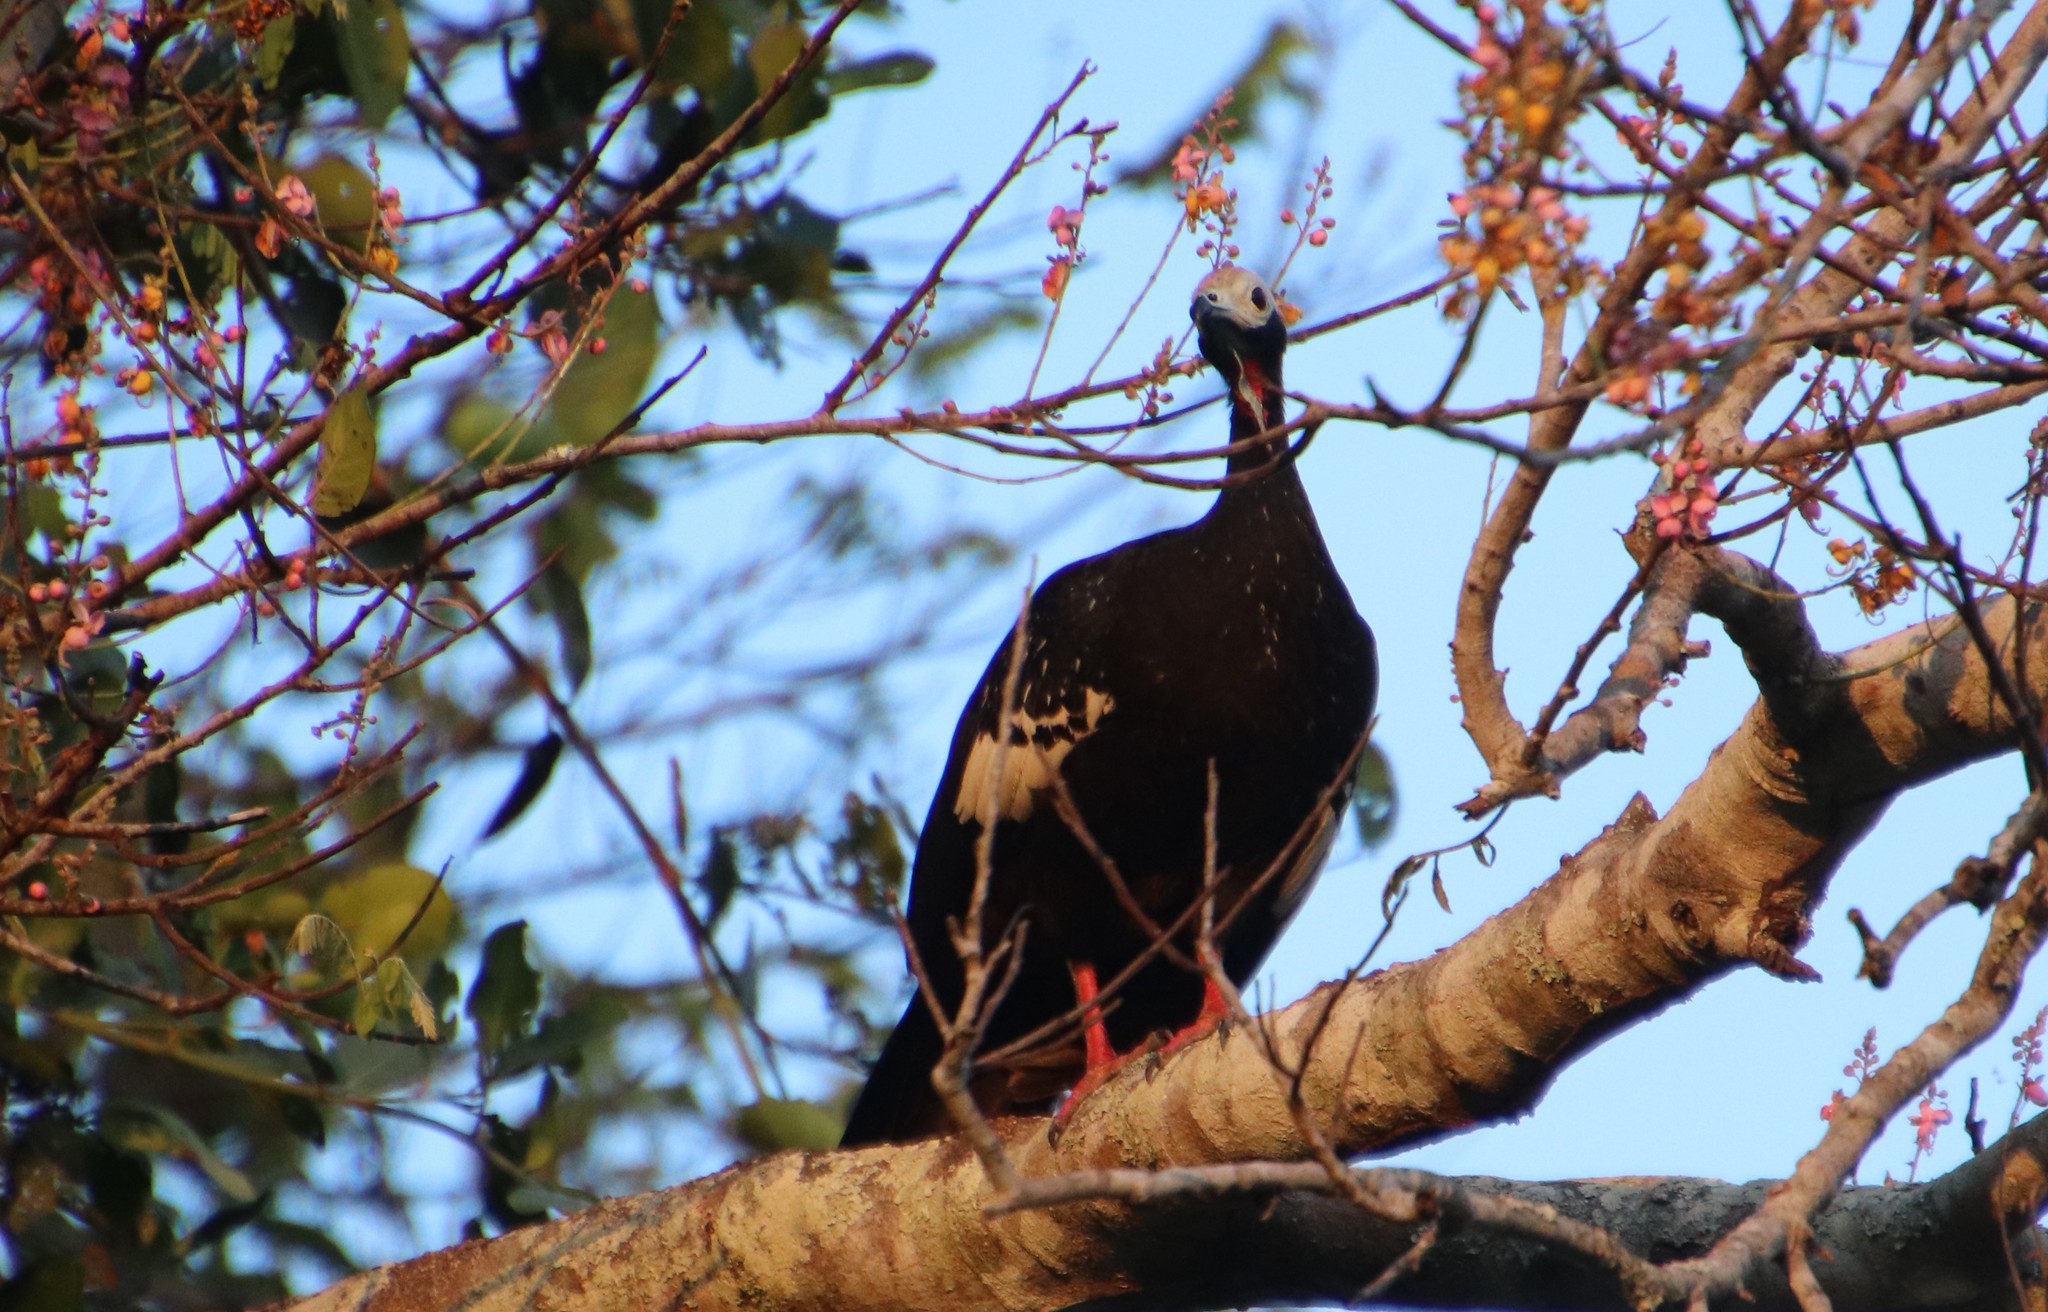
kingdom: Animalia
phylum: Chordata
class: Aves
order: Galliformes
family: Cracidae
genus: Pipile
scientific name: Pipile cumanensis
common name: Blue-throated piping-guan
